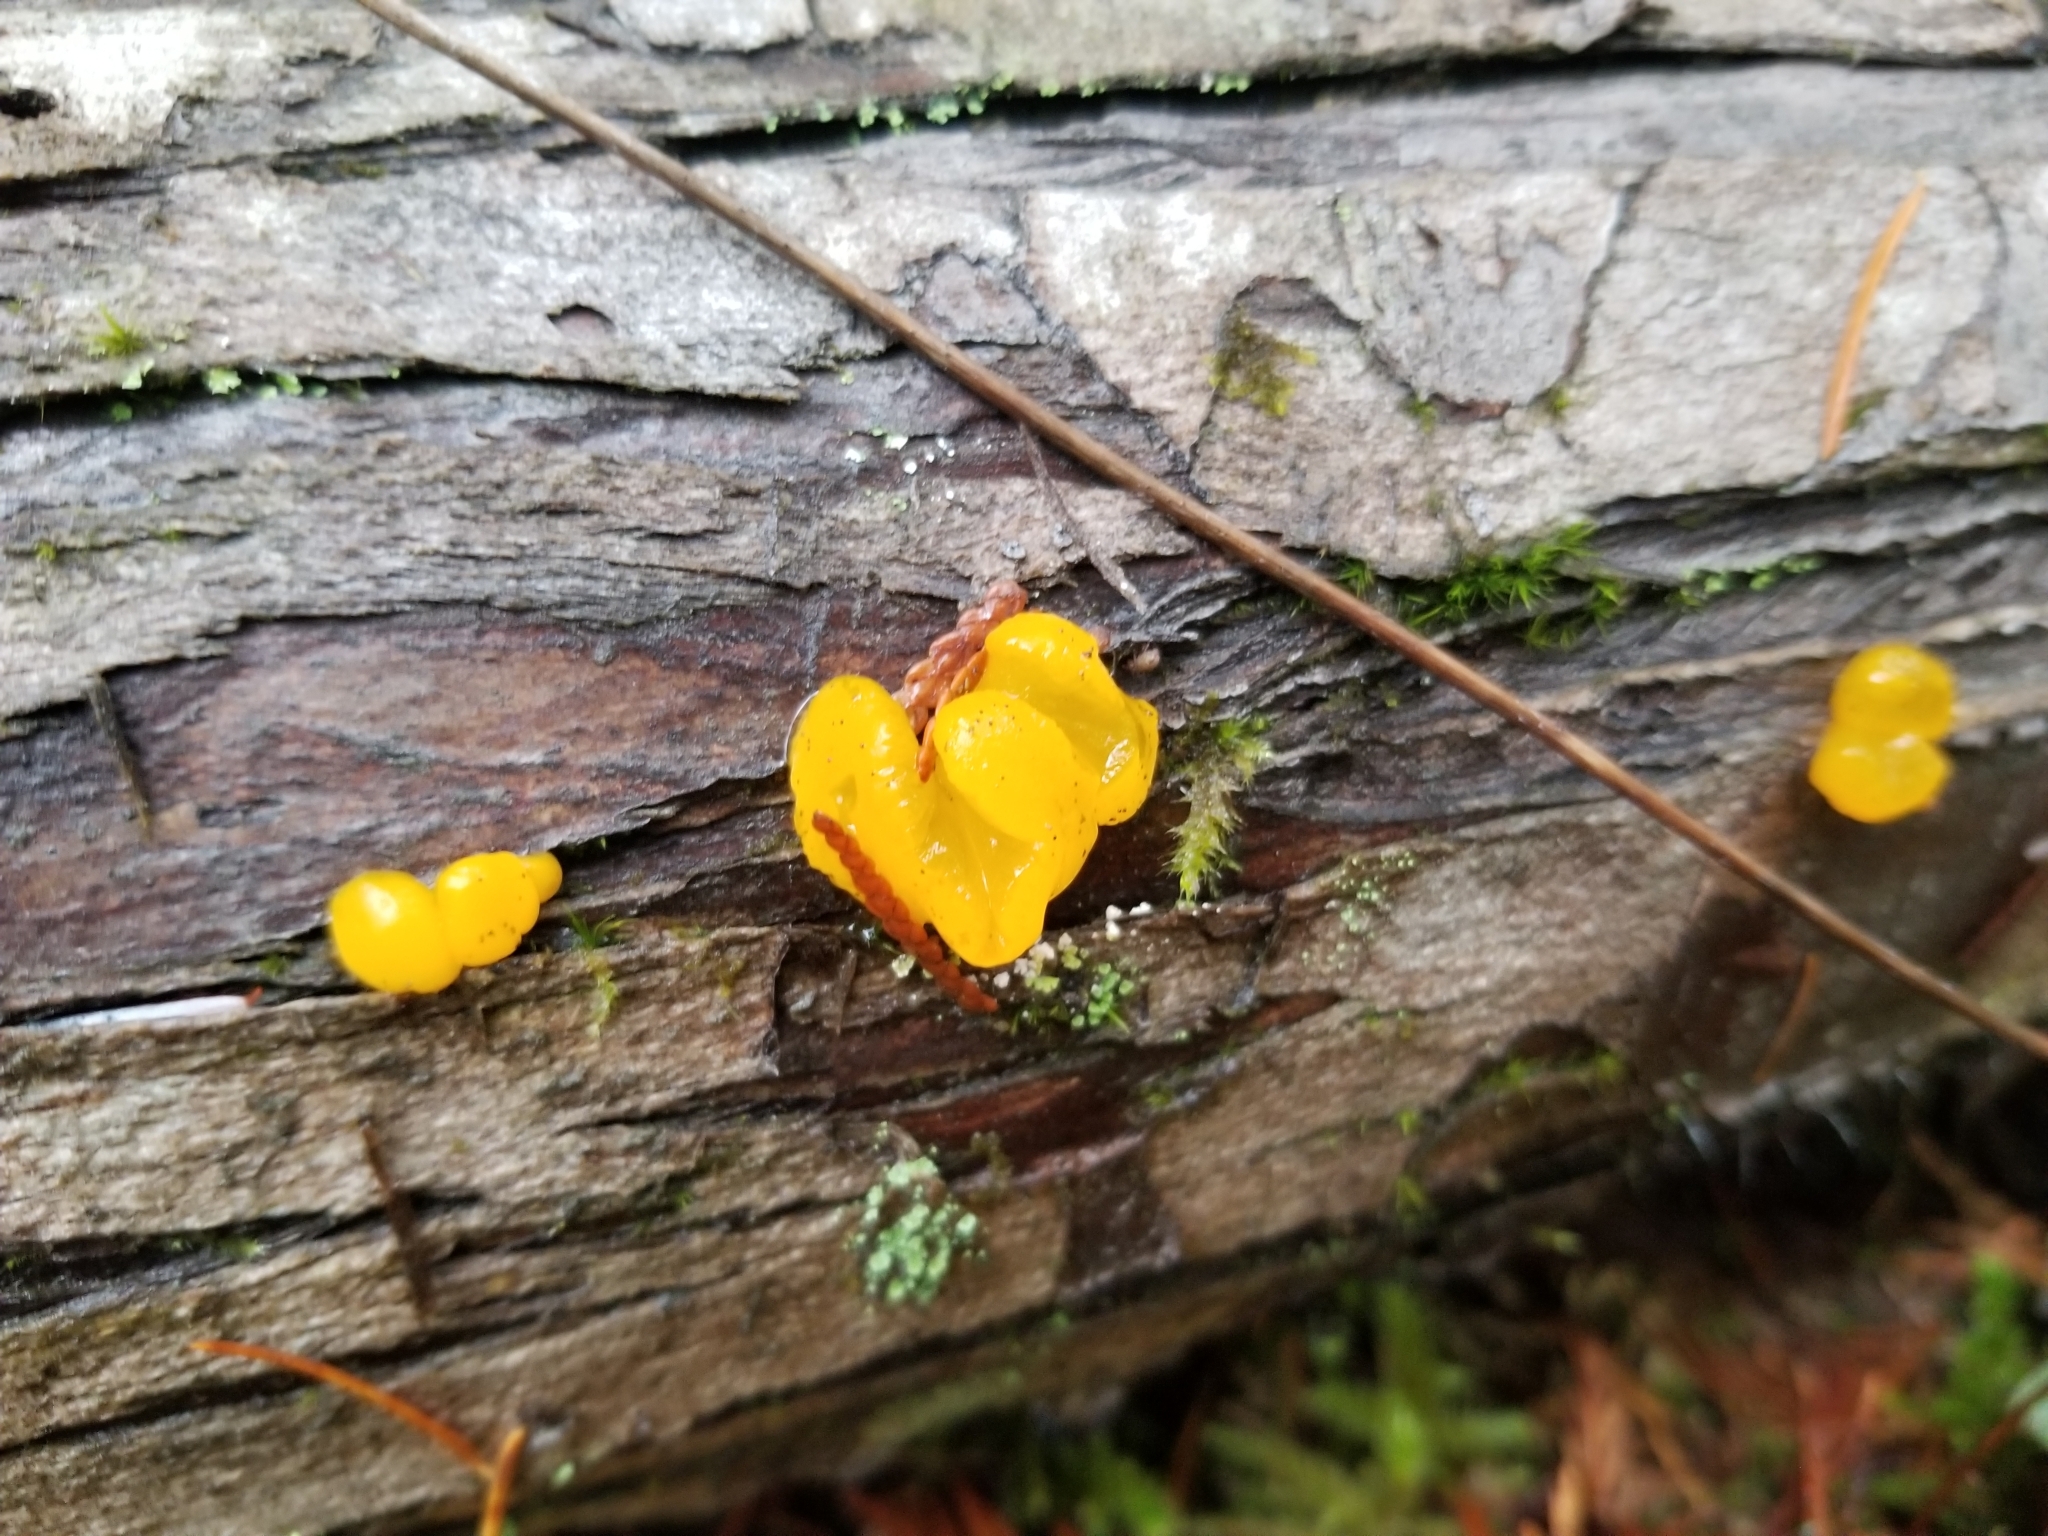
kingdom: Fungi
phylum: Basidiomycota
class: Dacrymycetes
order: Dacrymycetales
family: Dacrymycetaceae
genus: Dacrymyces
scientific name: Dacrymyces chrysospermus
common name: Orange jelly spot
